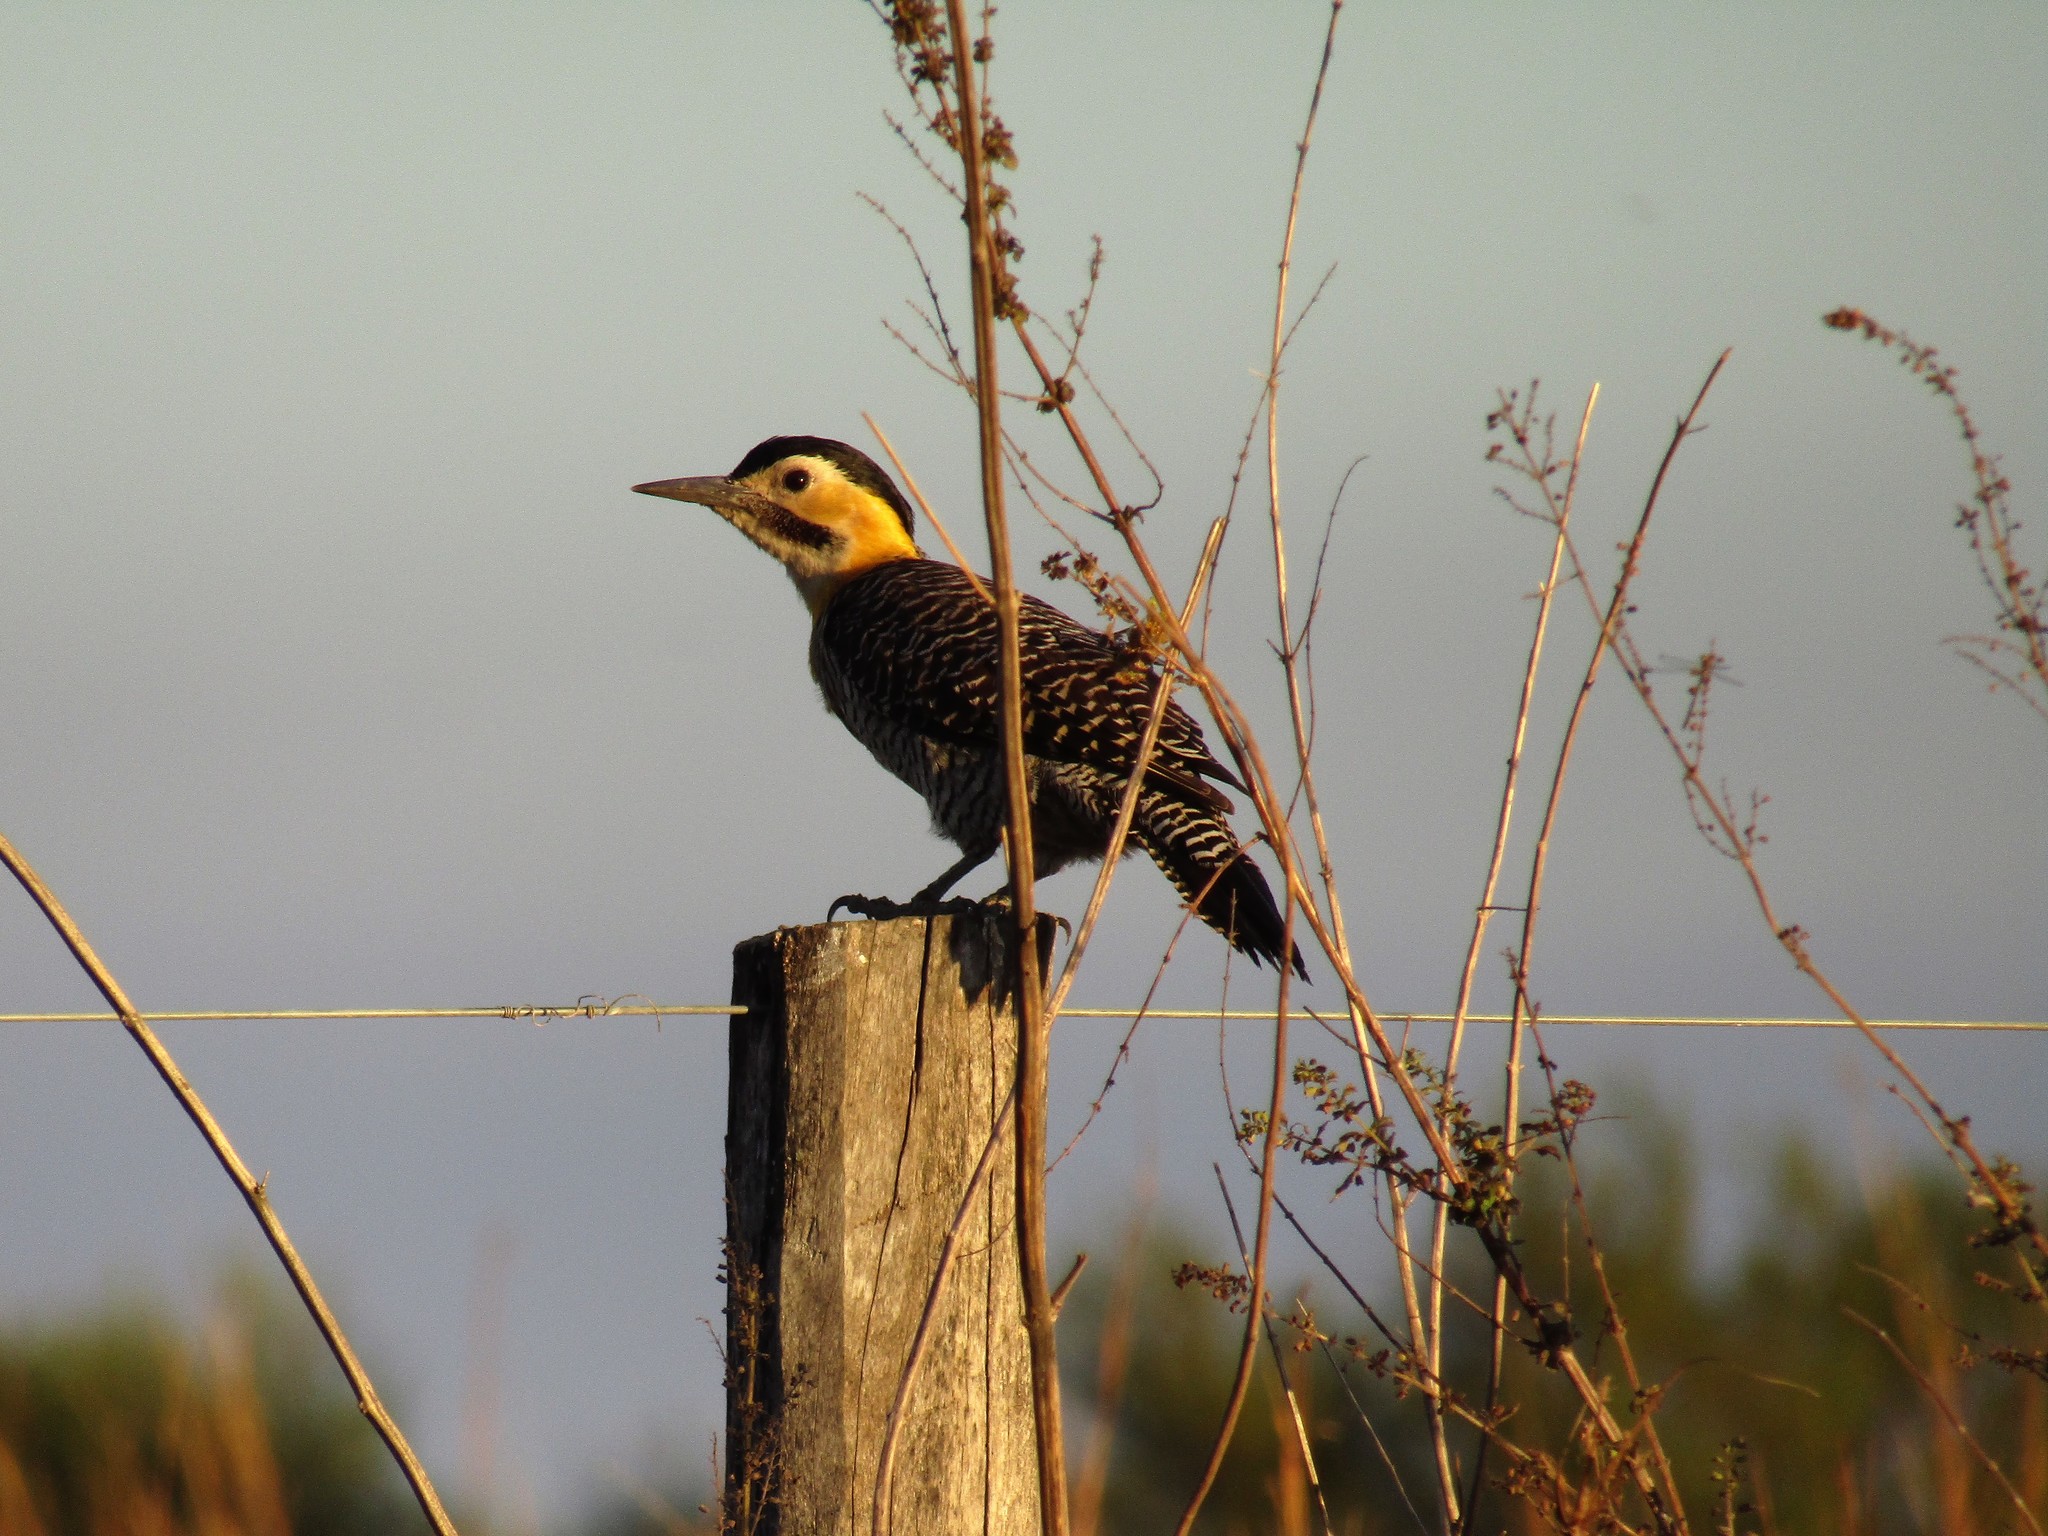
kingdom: Animalia
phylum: Chordata
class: Aves
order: Piciformes
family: Picidae
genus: Colaptes
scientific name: Colaptes campestris
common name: Campo flicker
